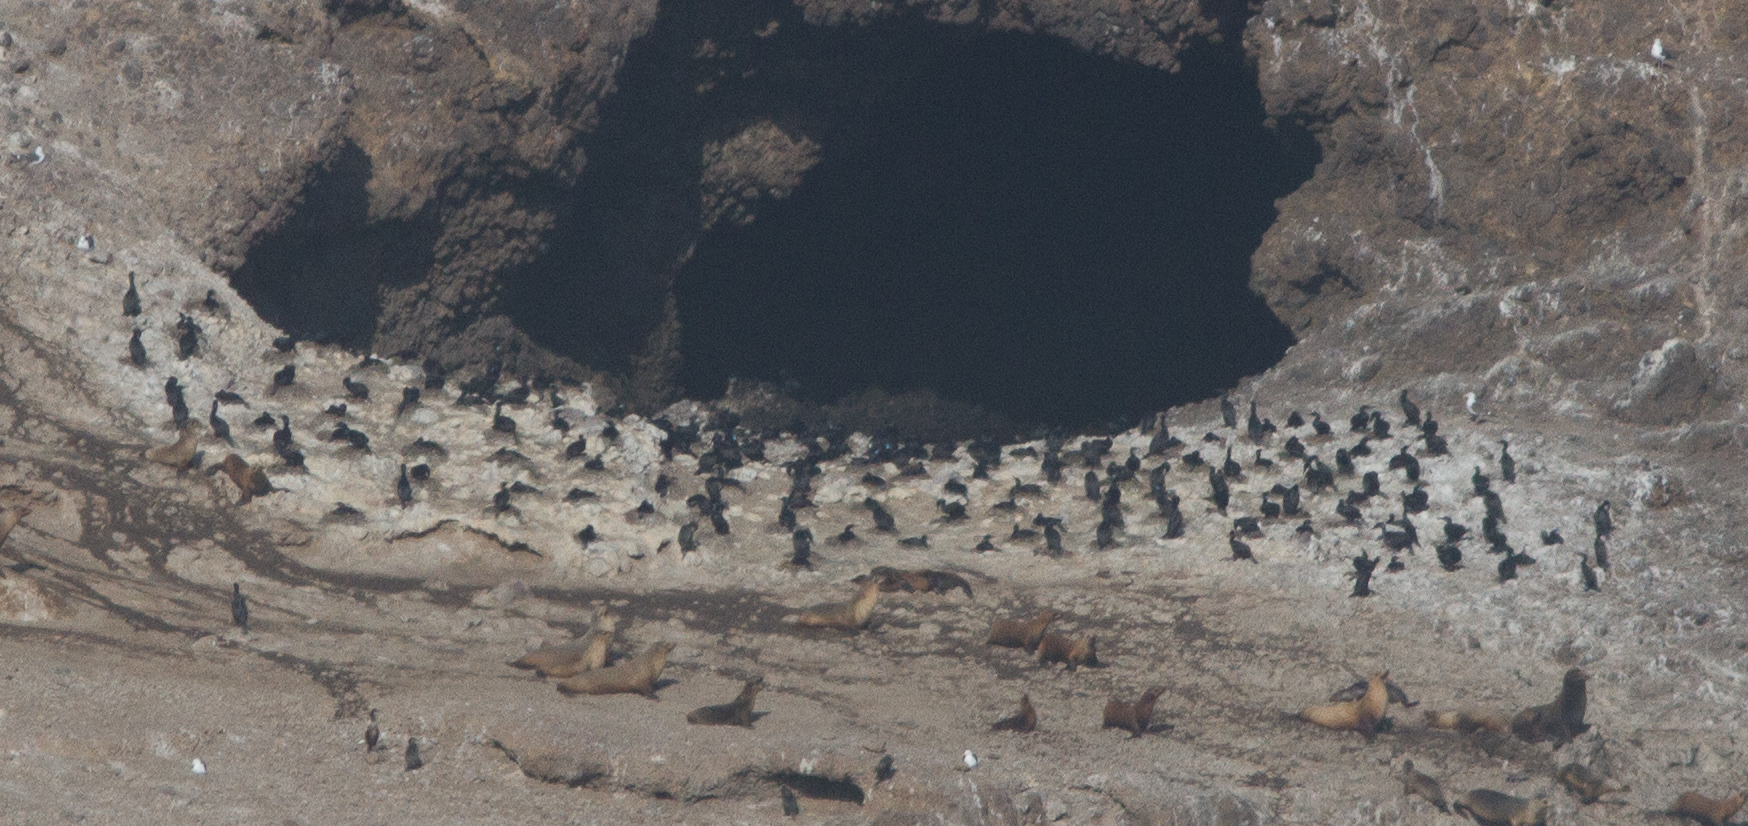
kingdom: Animalia
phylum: Chordata
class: Aves
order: Suliformes
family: Phalacrocoracidae
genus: Urile
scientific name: Urile penicillatus
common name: Brandt's cormorant
